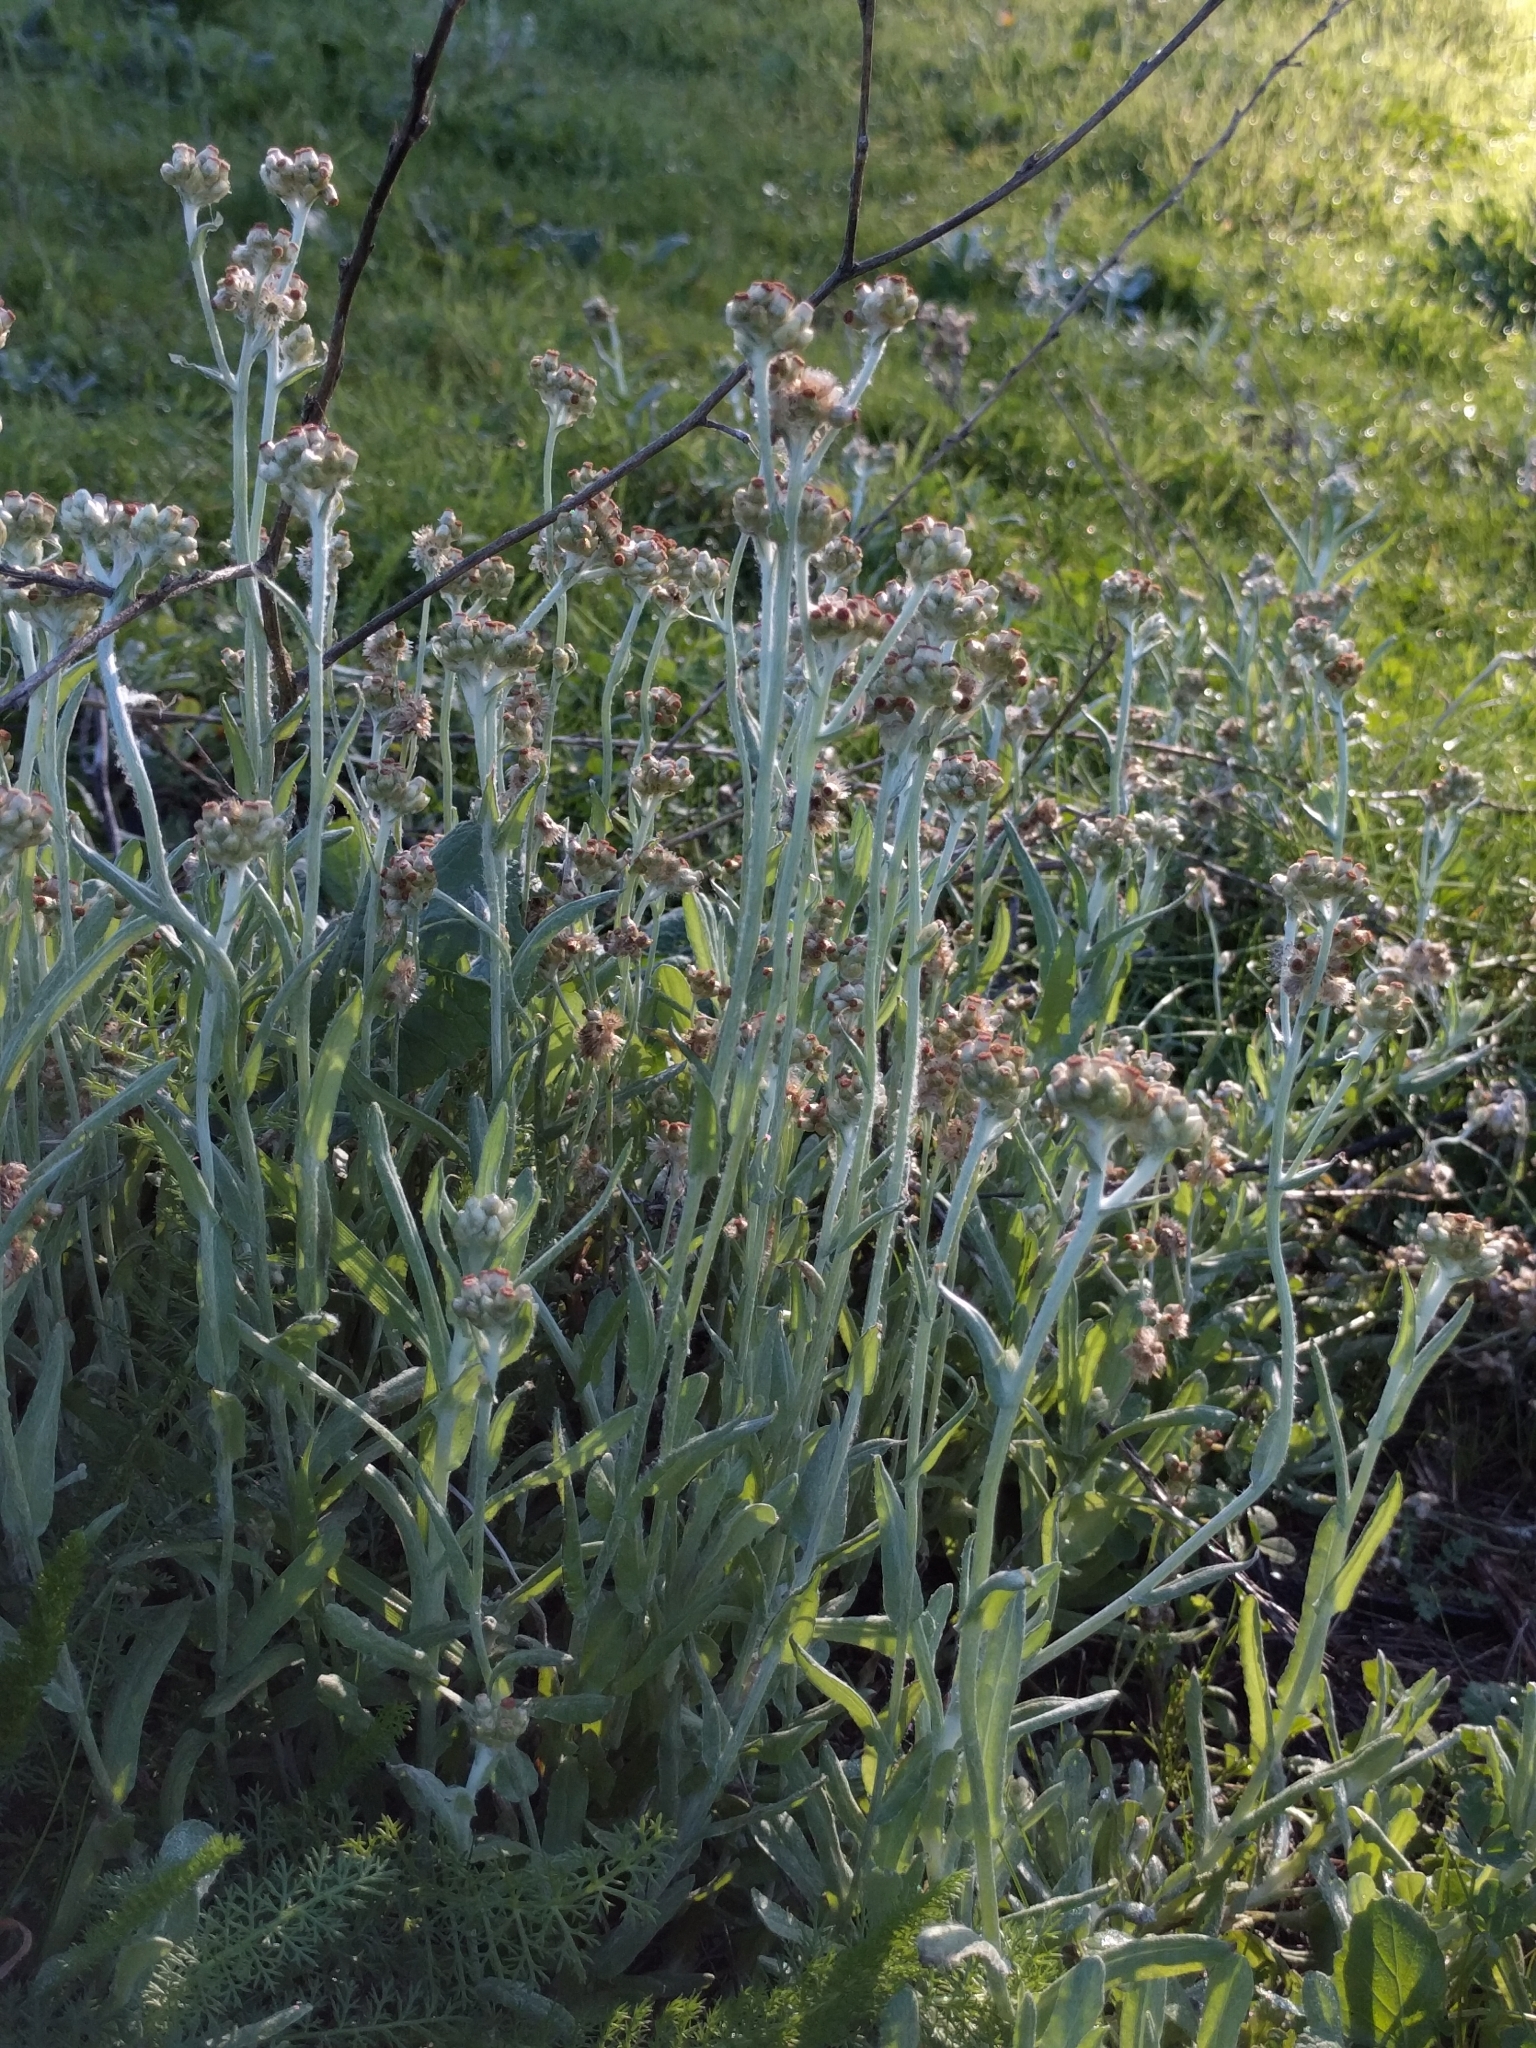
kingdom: Plantae
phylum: Tracheophyta
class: Magnoliopsida
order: Asterales
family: Asteraceae
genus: Helichrysum
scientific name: Helichrysum luteoalbum
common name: Daisy
